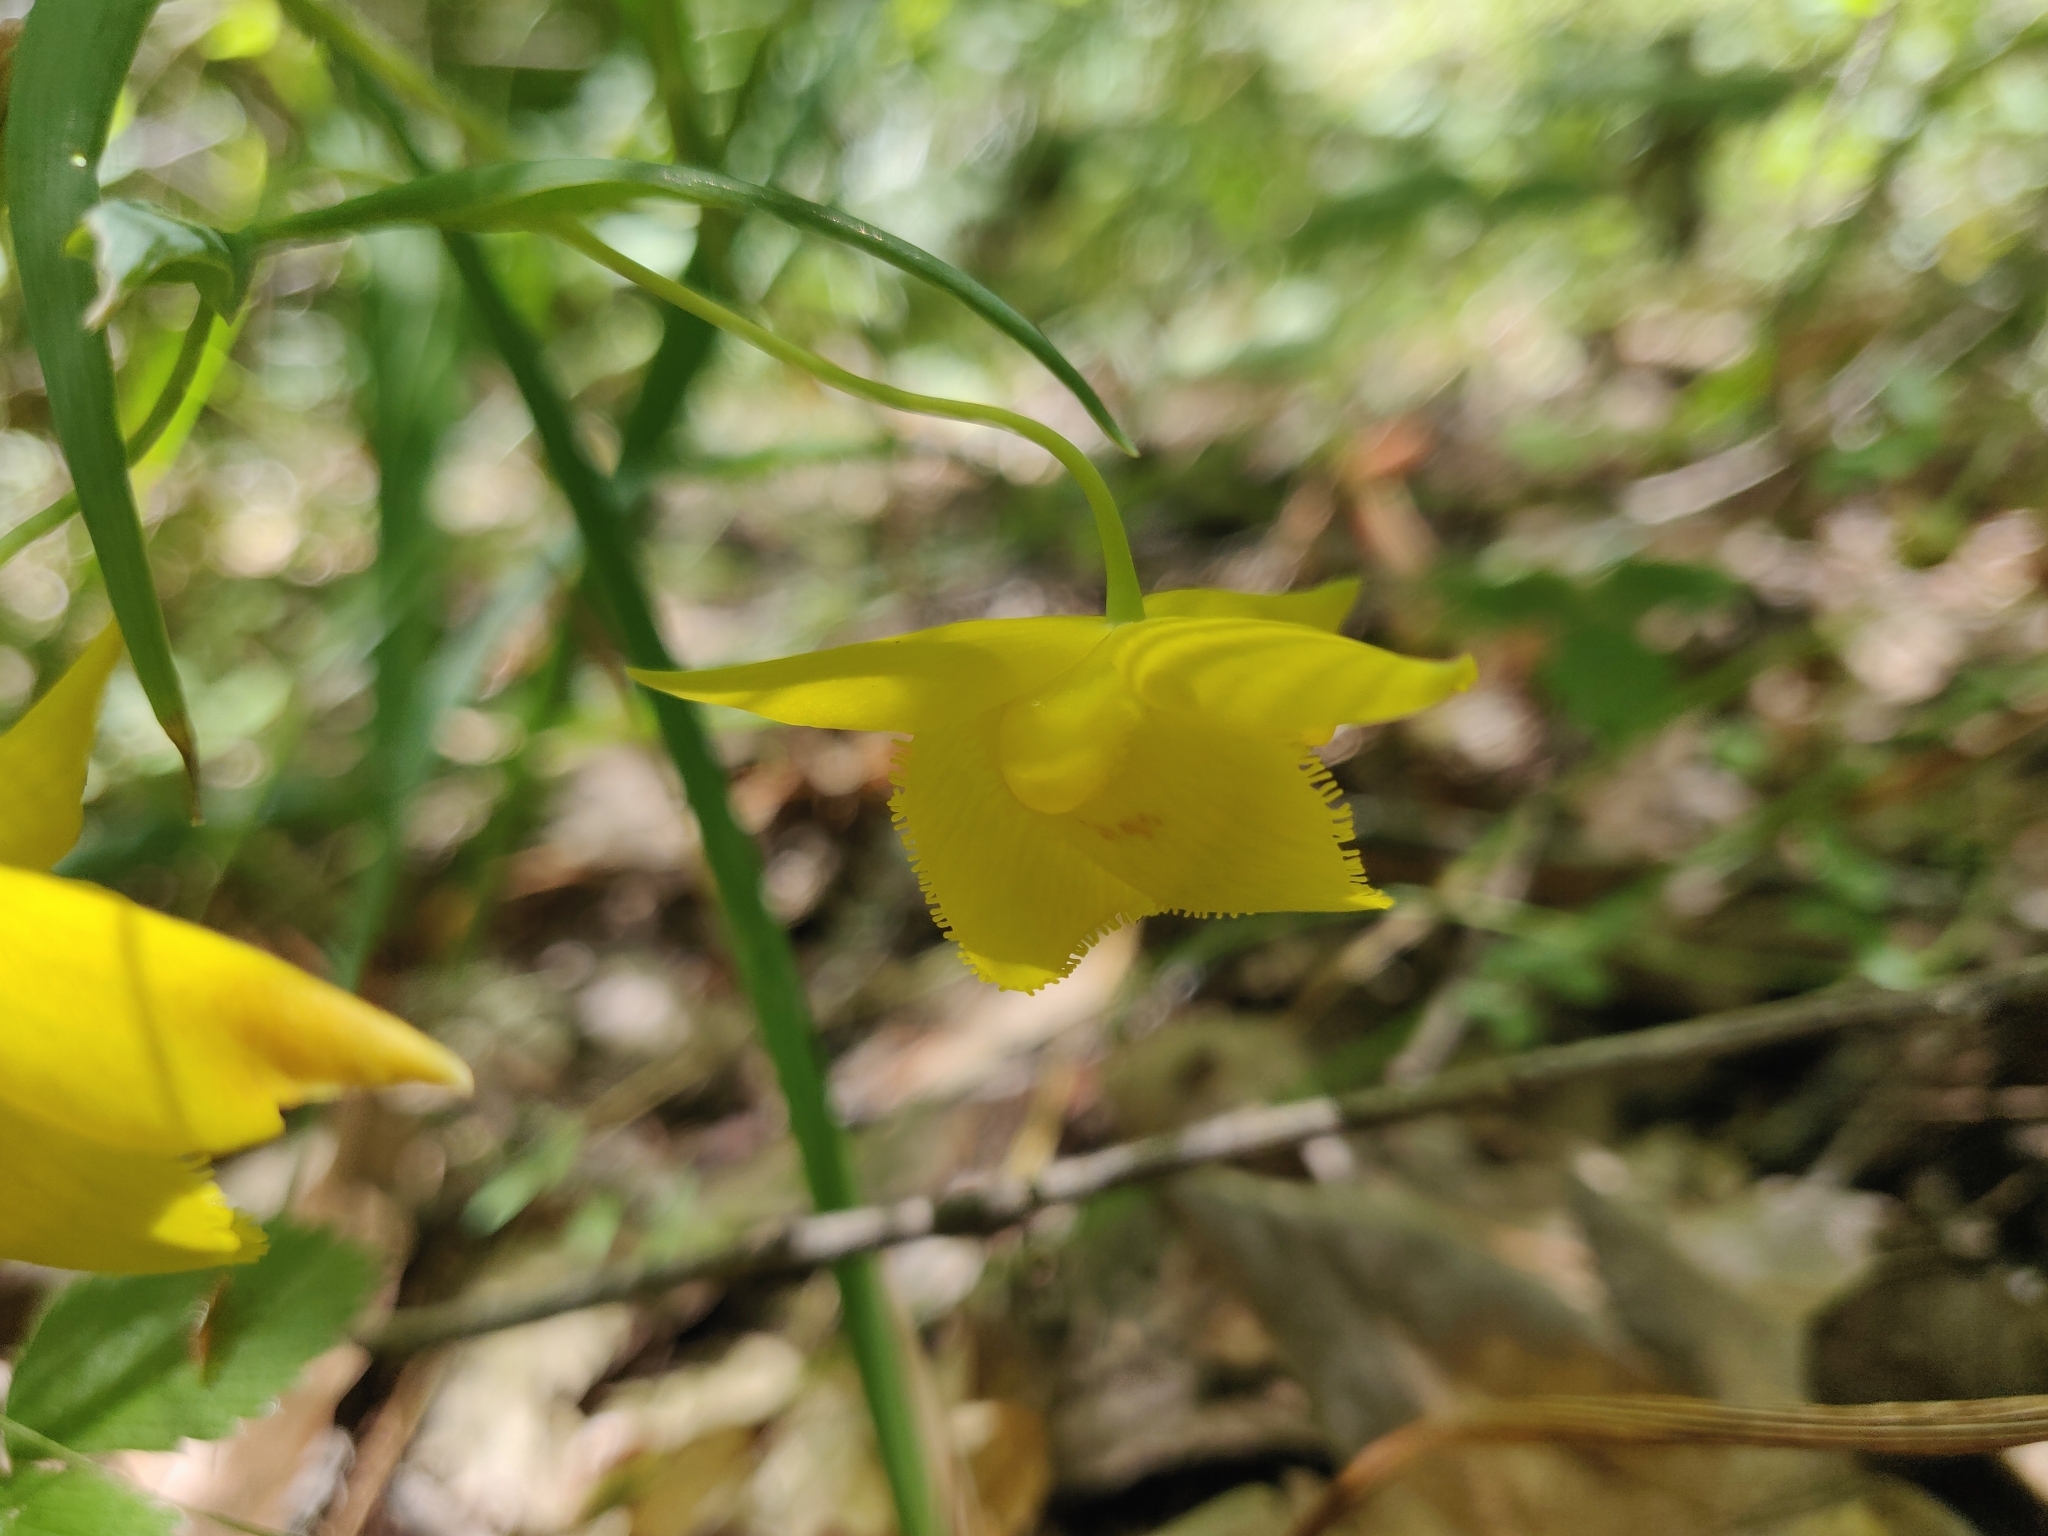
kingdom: Plantae
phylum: Tracheophyta
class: Liliopsida
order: Liliales
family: Liliaceae
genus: Calochortus
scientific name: Calochortus amabilis
